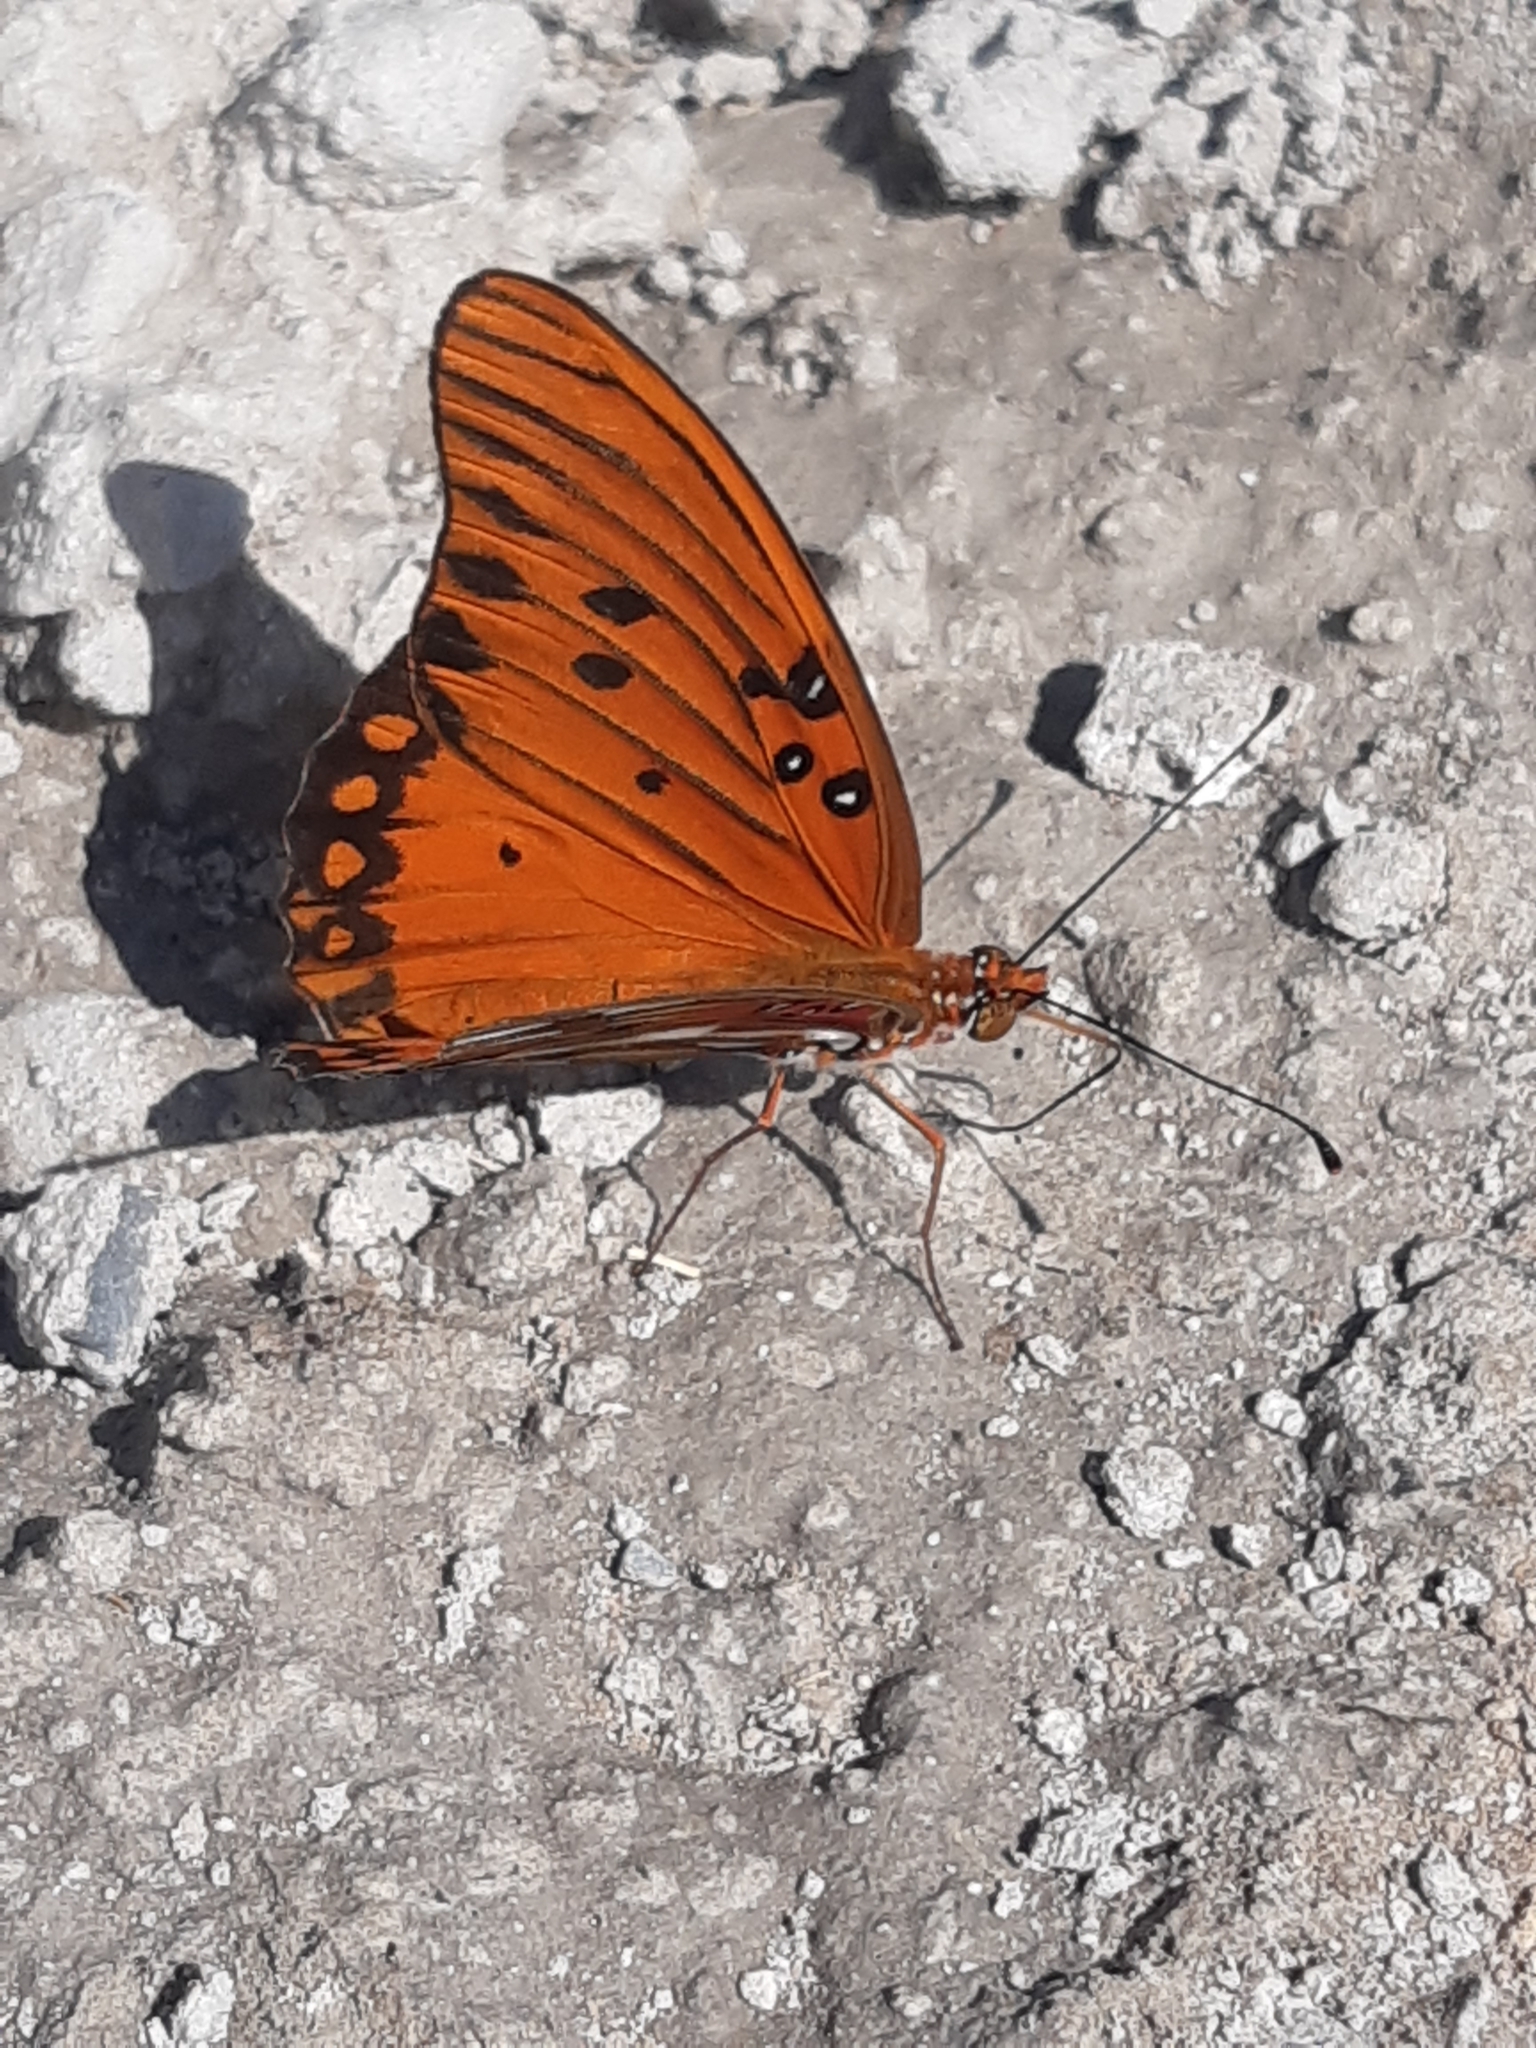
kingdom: Animalia
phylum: Arthropoda
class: Insecta
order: Lepidoptera
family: Nymphalidae
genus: Dione
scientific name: Dione vanillae
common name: Gulf fritillary
